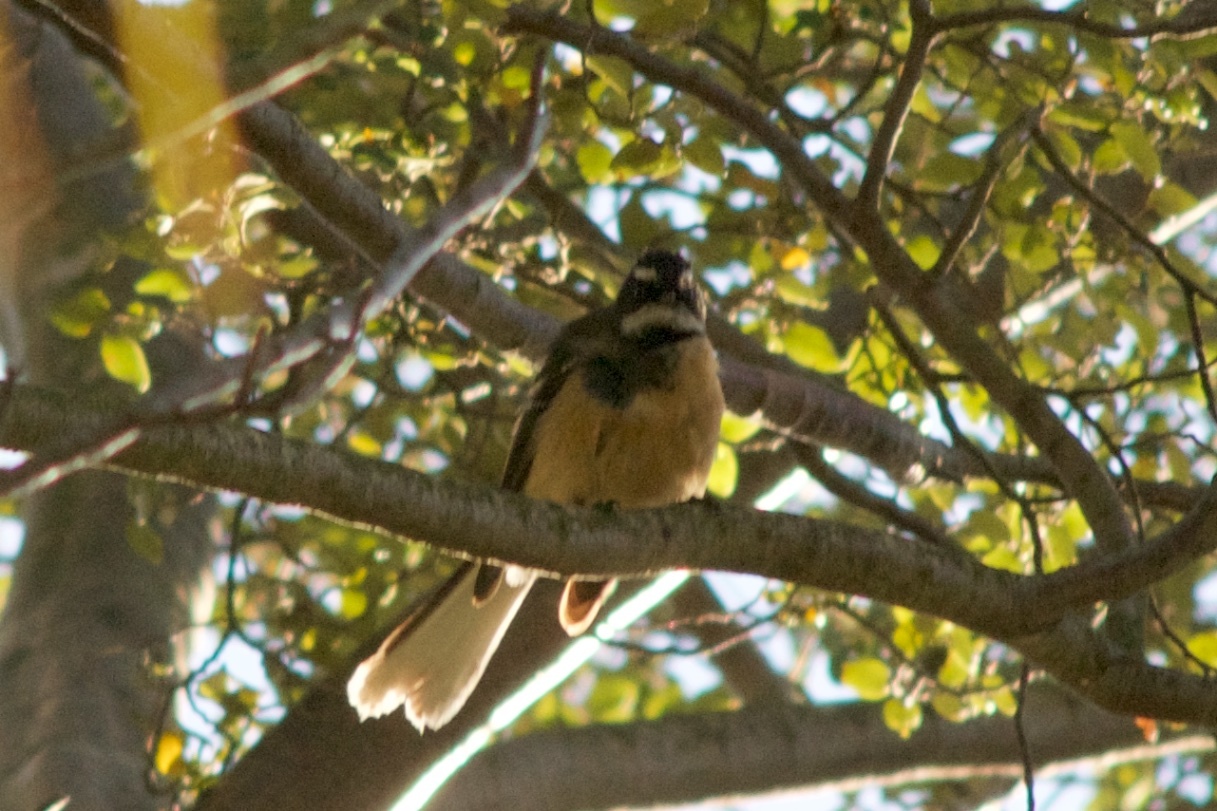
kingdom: Animalia
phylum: Chordata
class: Aves
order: Passeriformes
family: Rhipiduridae
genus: Rhipidura
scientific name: Rhipidura fuliginosa
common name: New zealand fantail
